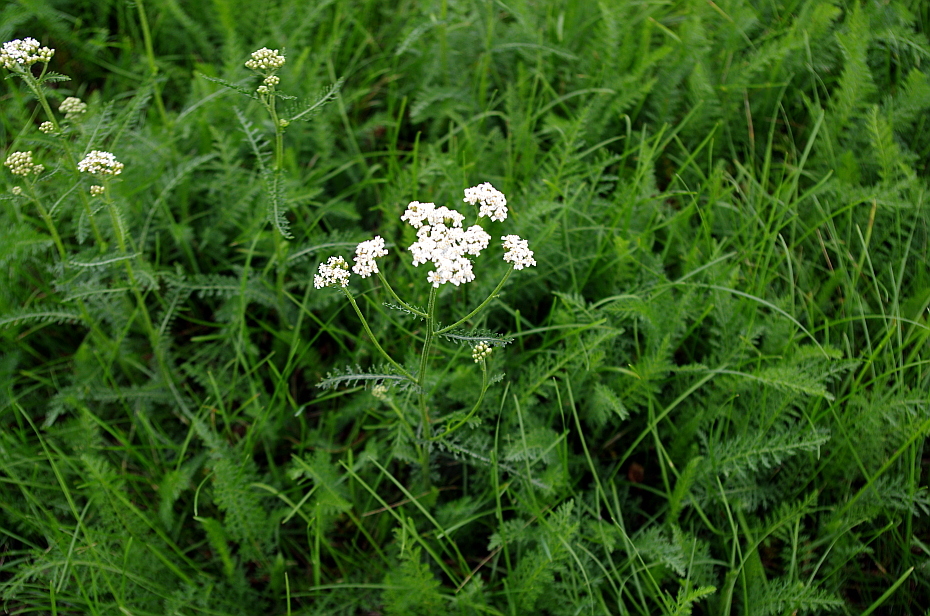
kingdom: Plantae
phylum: Tracheophyta
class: Magnoliopsida
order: Asterales
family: Asteraceae
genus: Achillea
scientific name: Achillea millefolium
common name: Yarrow
